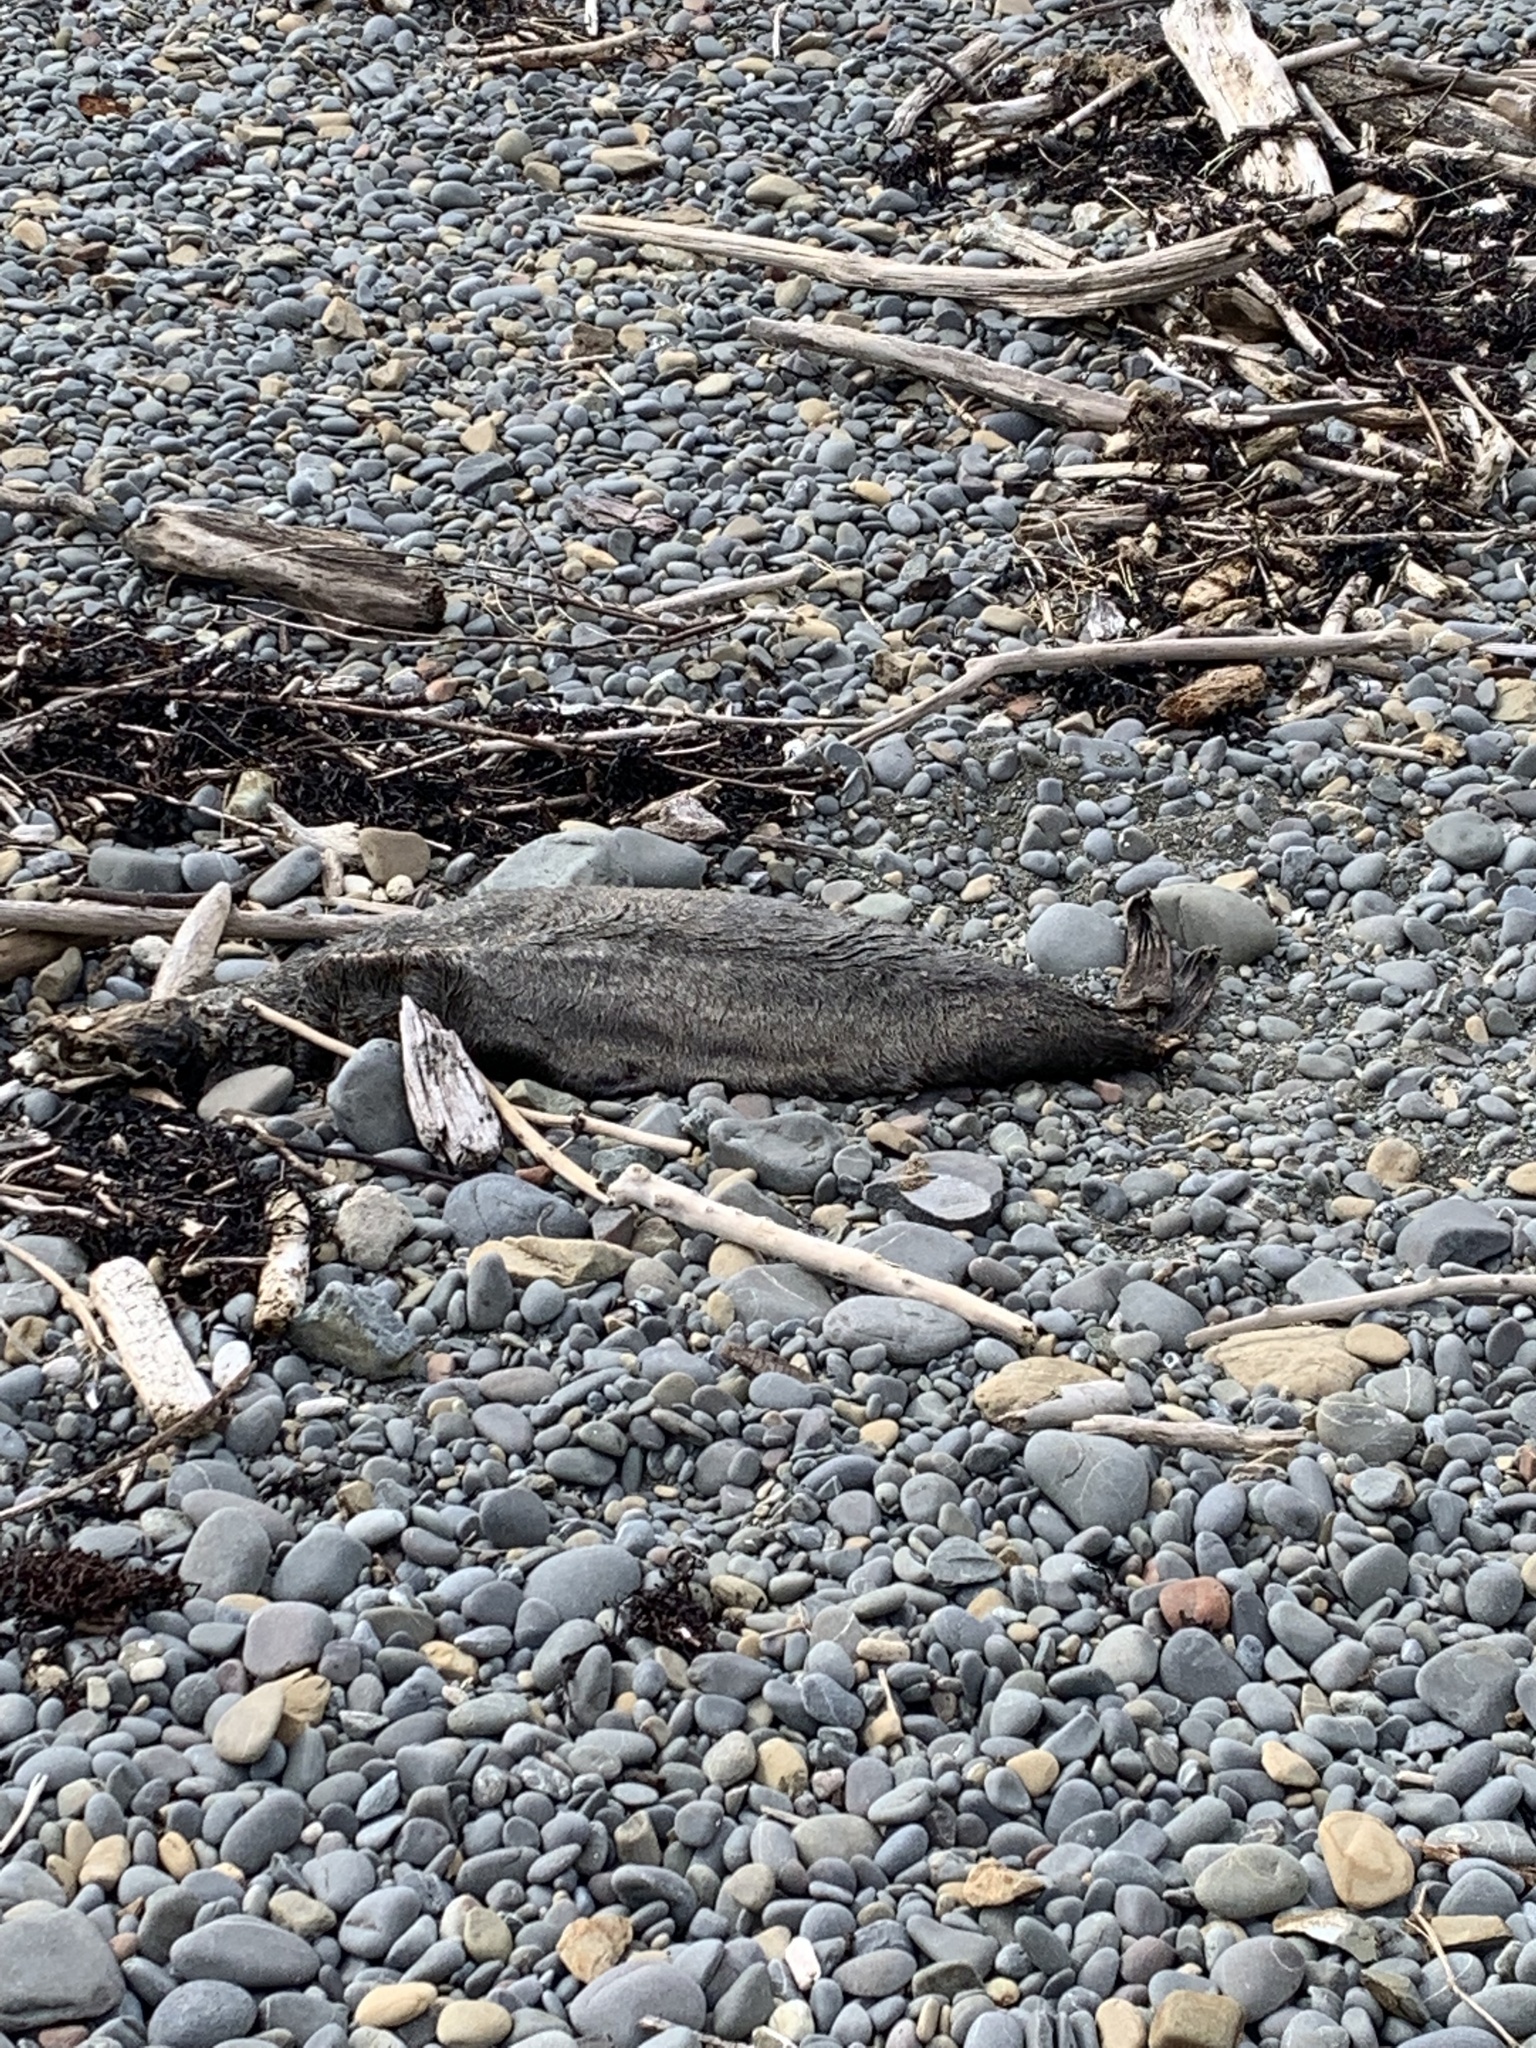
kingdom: Animalia
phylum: Chordata
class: Mammalia
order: Carnivora
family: Otariidae
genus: Arctocephalus
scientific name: Arctocephalus forsteri
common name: New zealand fur seal
